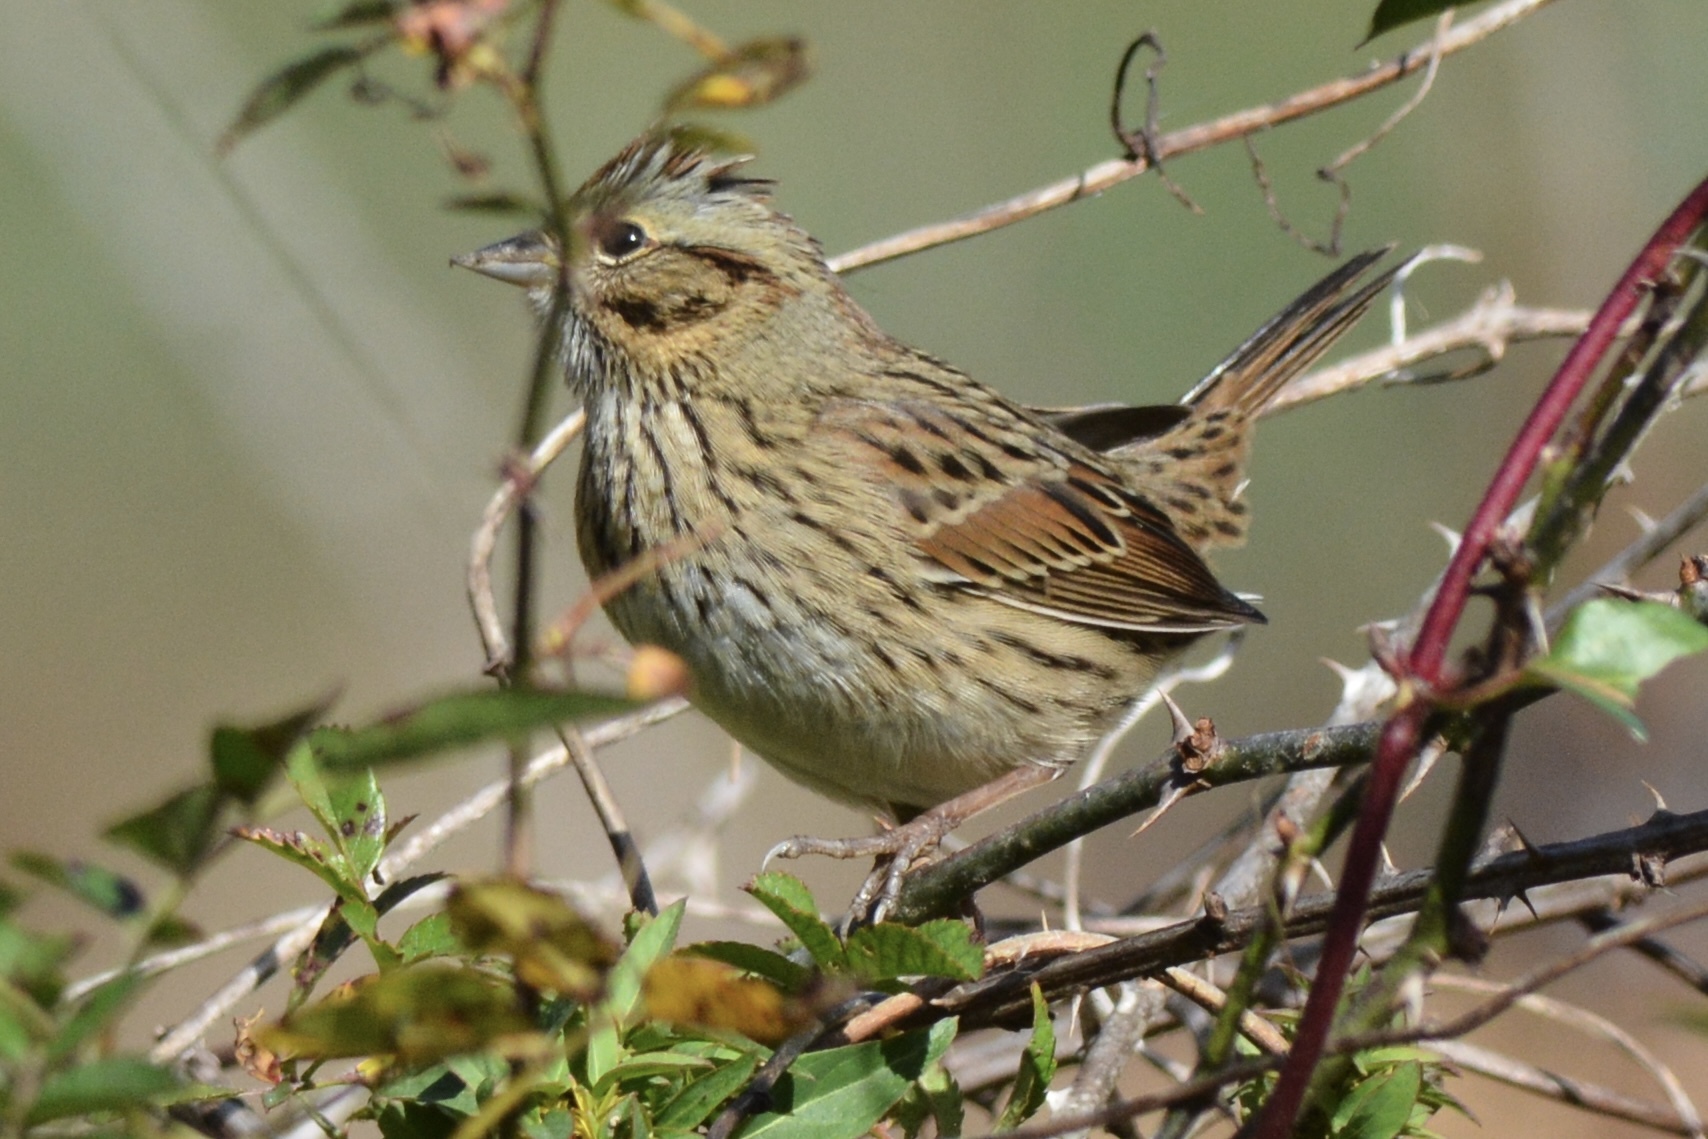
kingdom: Animalia
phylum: Chordata
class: Aves
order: Passeriformes
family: Passerellidae
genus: Melospiza
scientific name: Melospiza lincolnii
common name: Lincoln's sparrow
